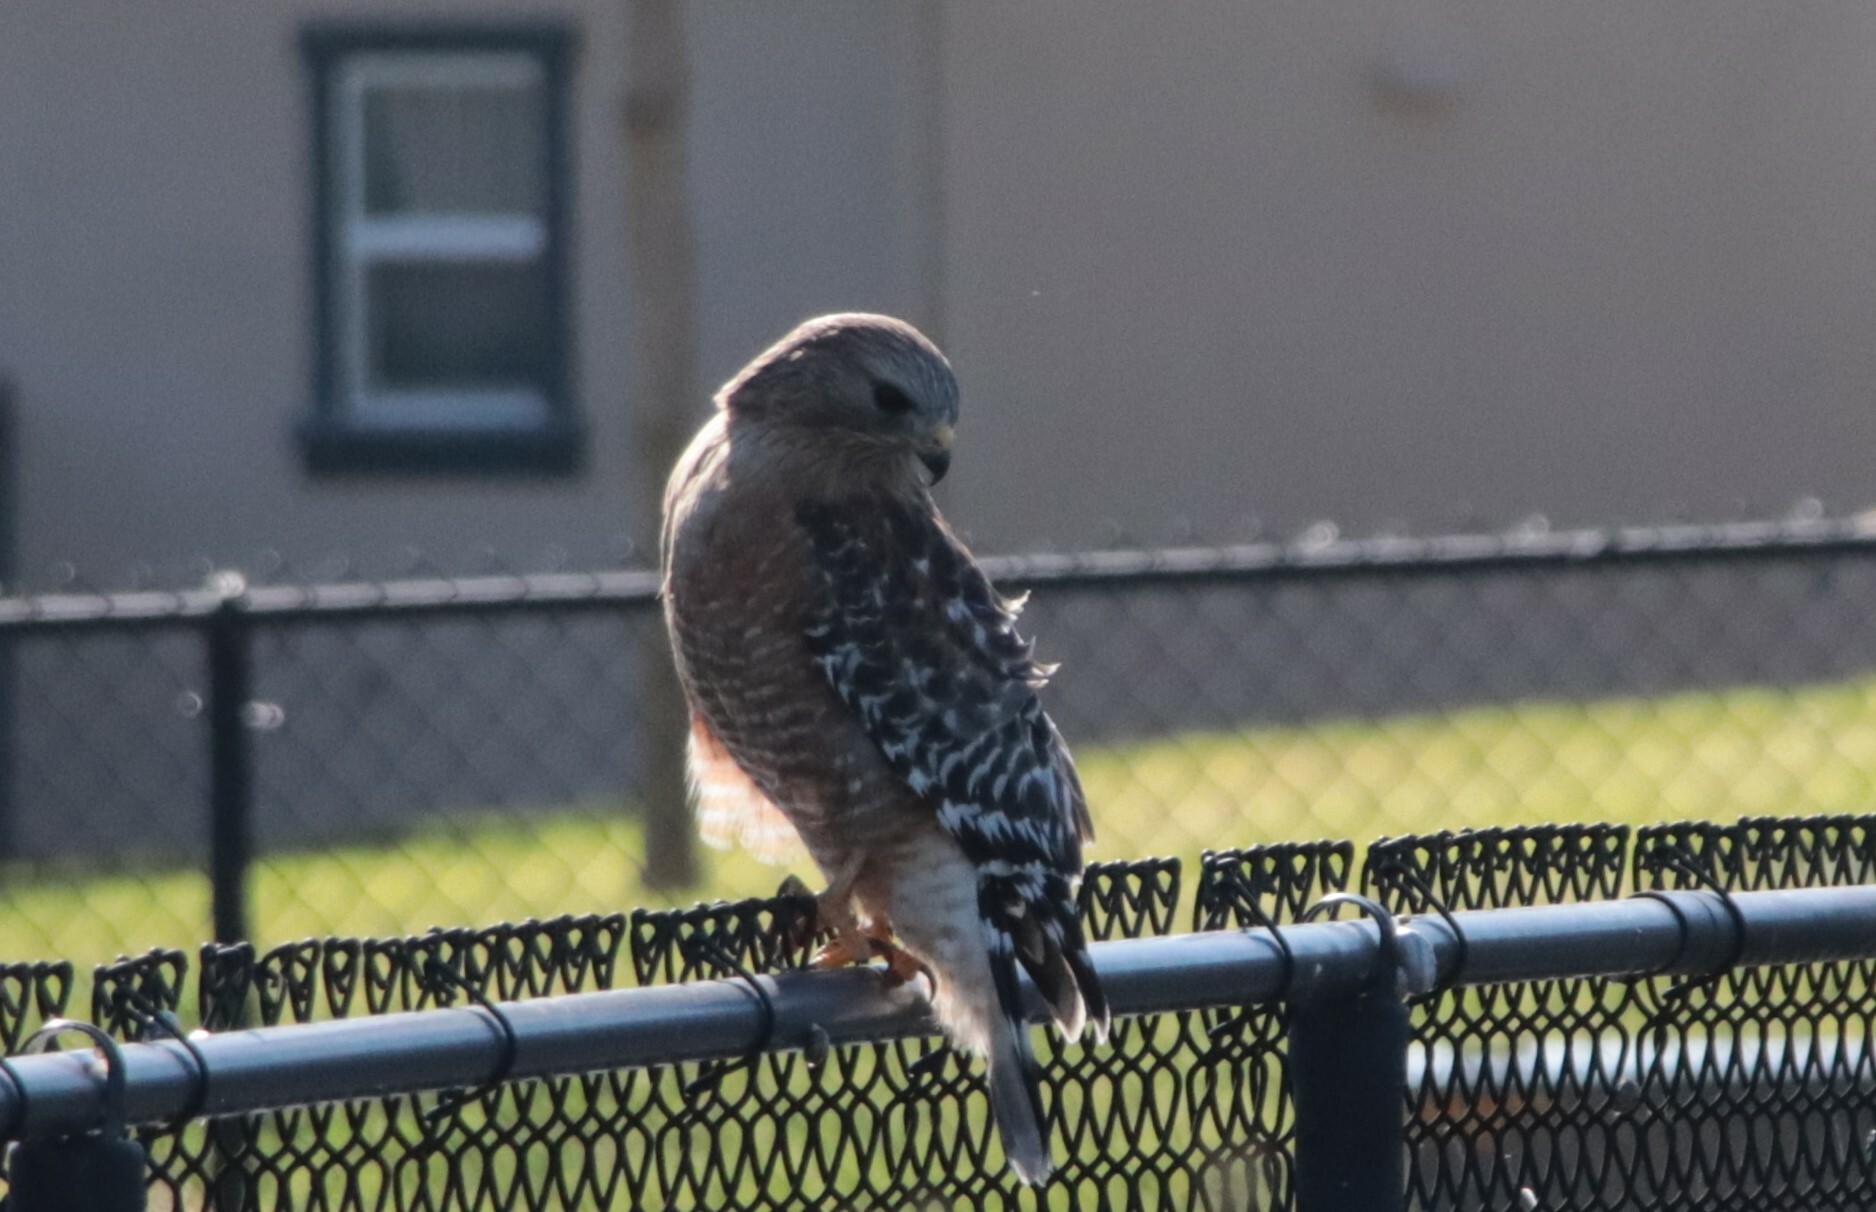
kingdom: Animalia
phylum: Chordata
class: Aves
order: Accipitriformes
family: Accipitridae
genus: Buteo
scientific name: Buteo lineatus
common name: Red-shouldered hawk
